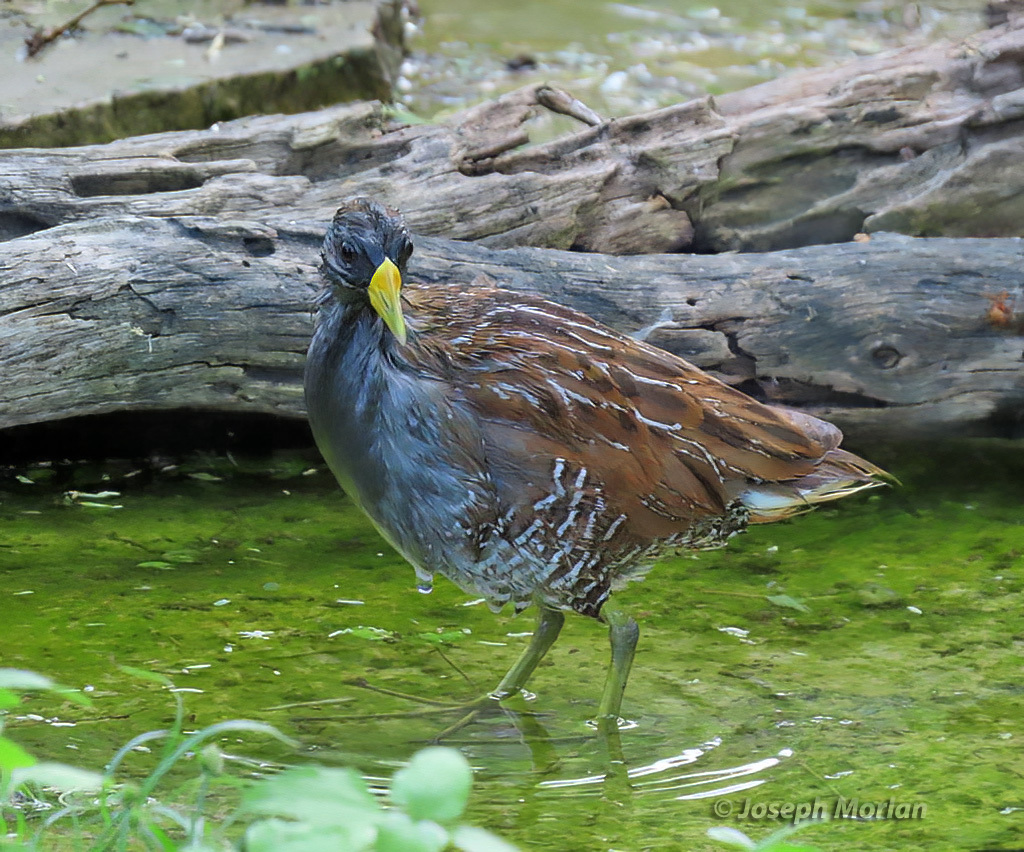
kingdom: Animalia
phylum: Chordata
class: Aves
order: Gruiformes
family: Rallidae
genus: Porzana
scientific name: Porzana carolina
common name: Sora
